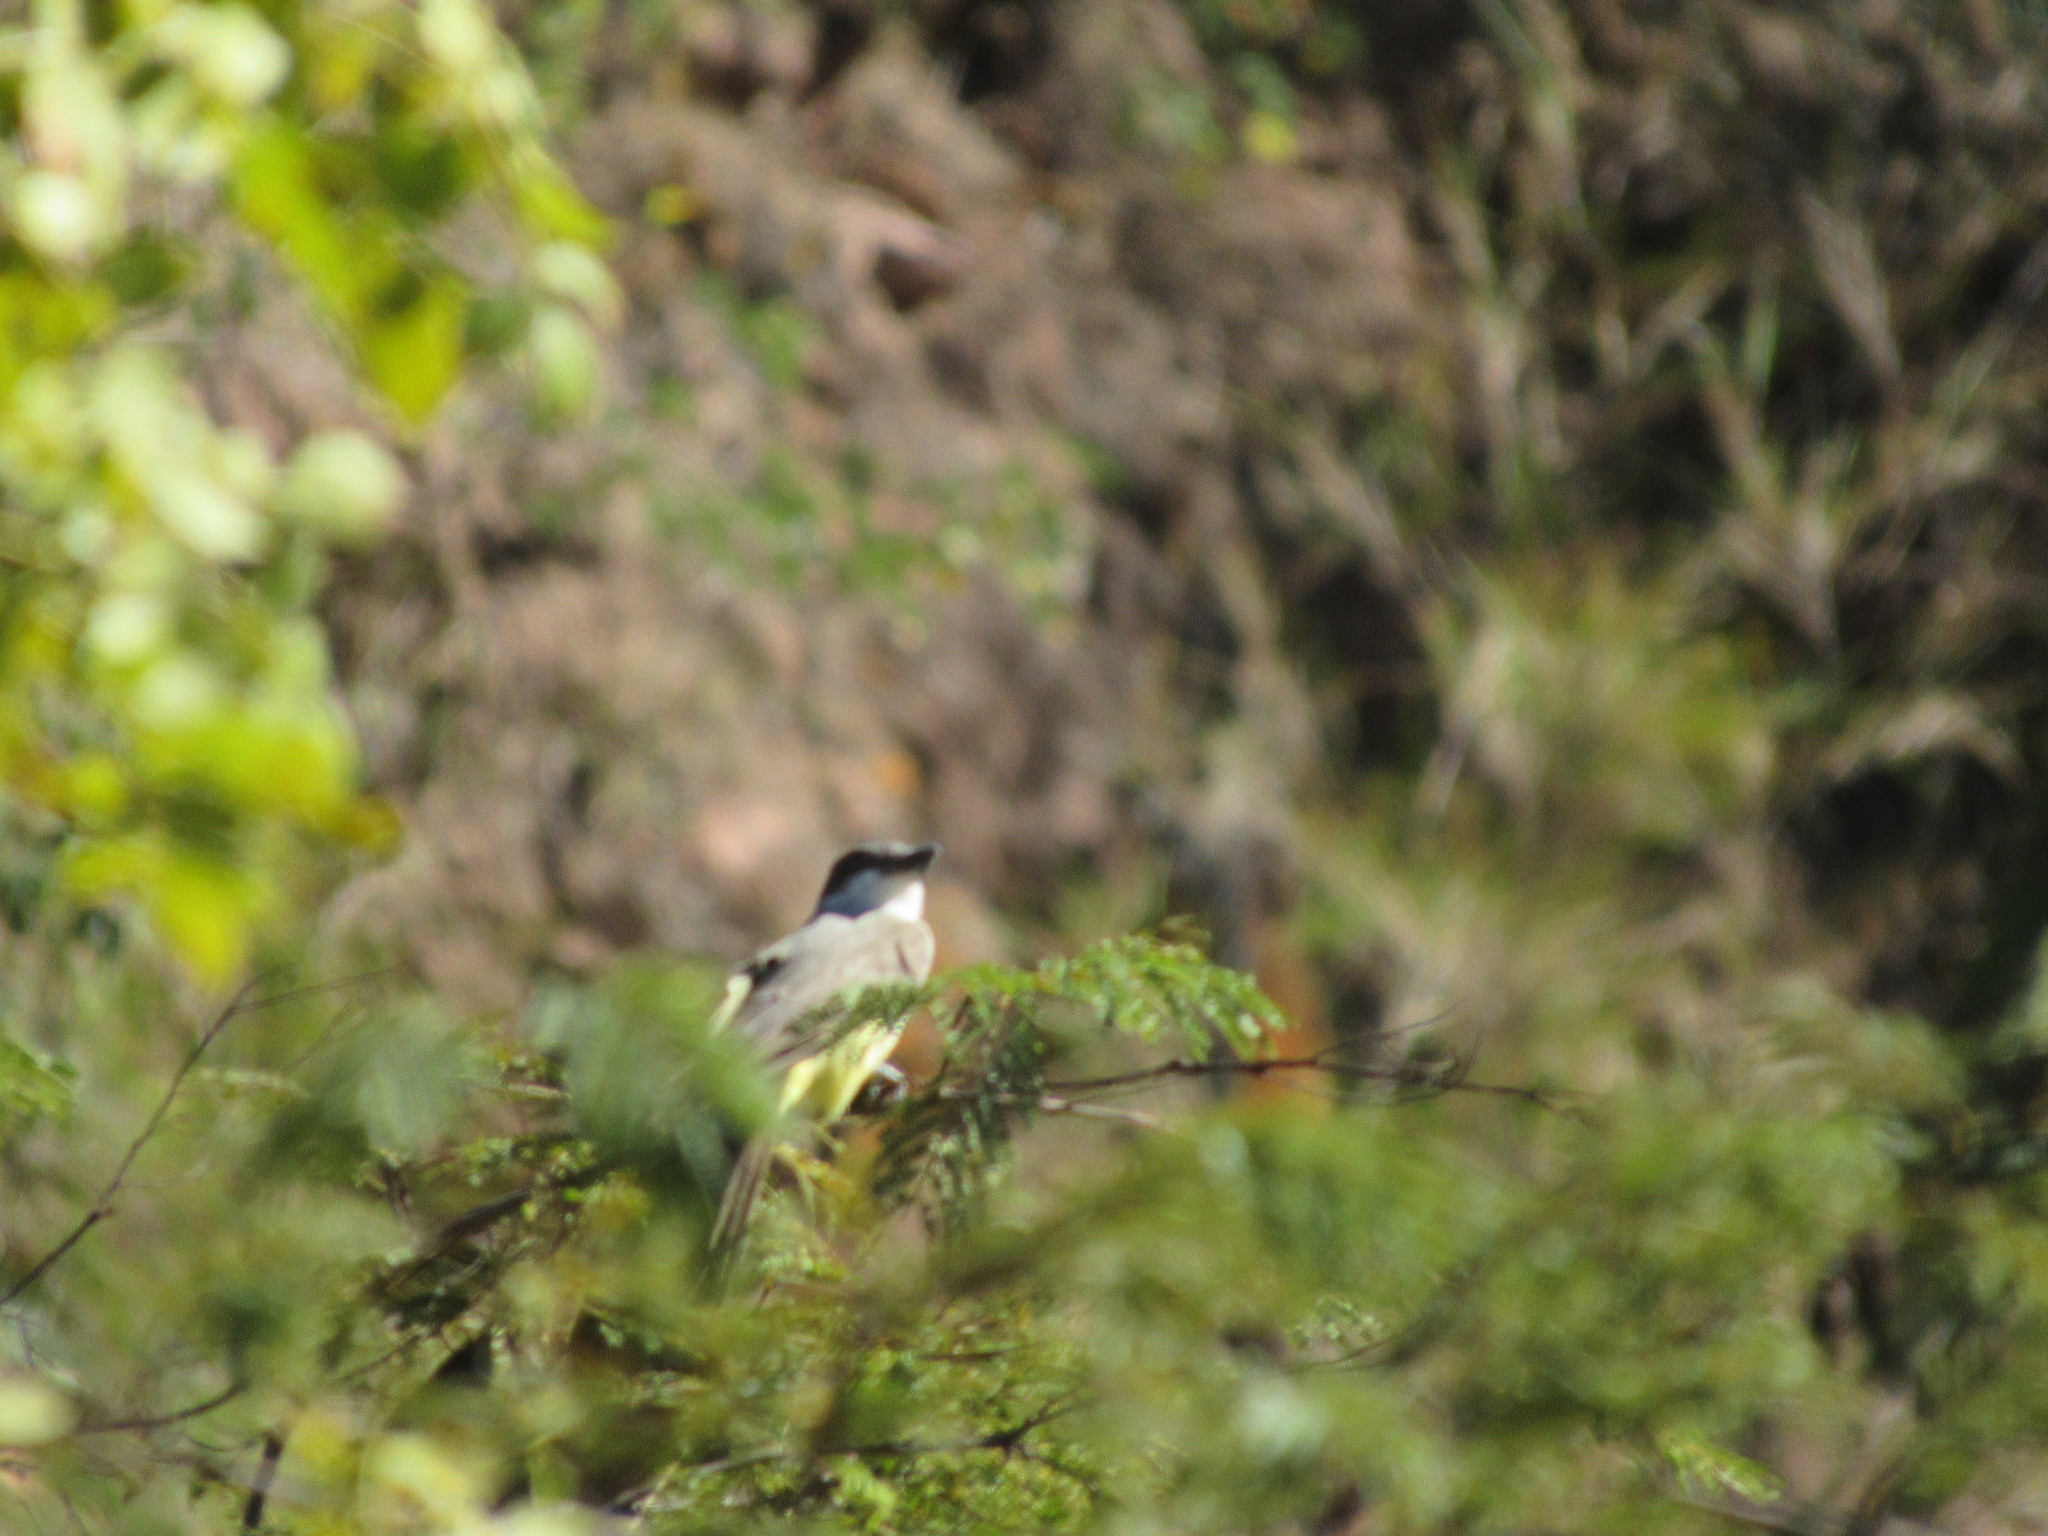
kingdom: Animalia
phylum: Chordata
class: Aves
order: Passeriformes
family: Tyrannidae
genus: Tyrannus
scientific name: Tyrannus crassirostris
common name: Thick-billed kingbird
